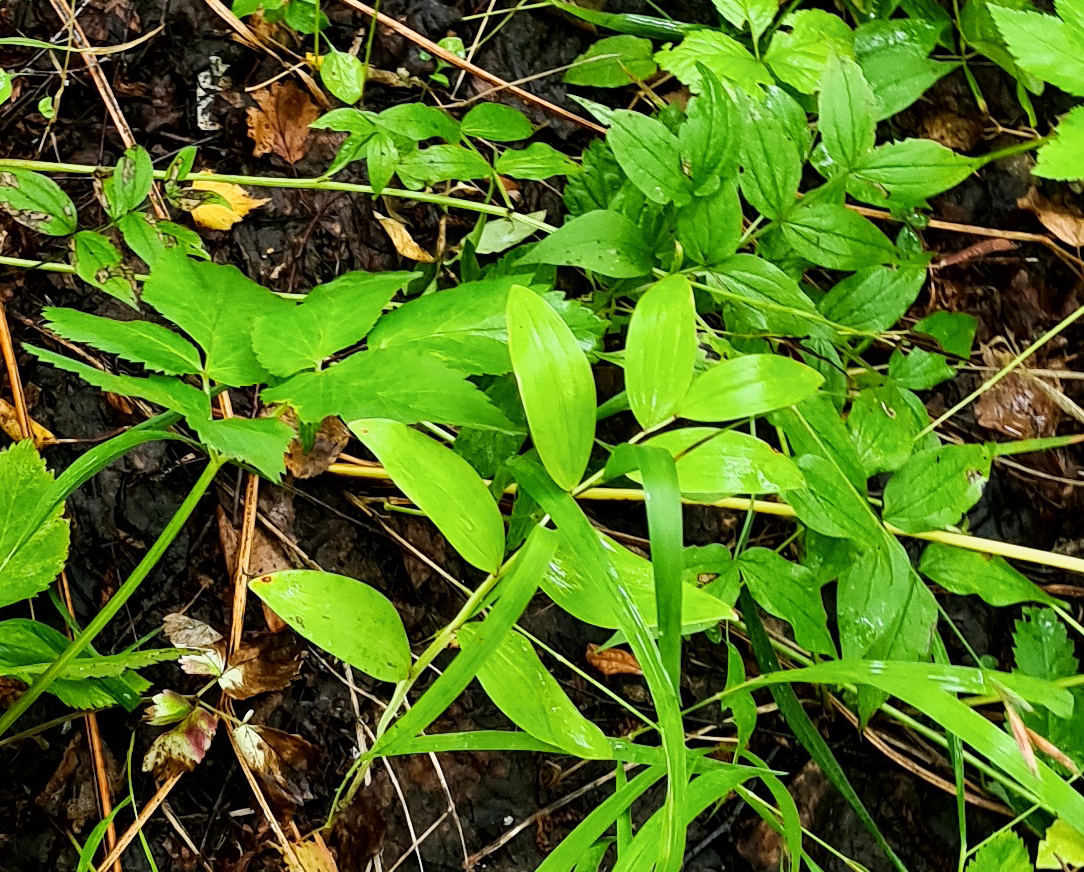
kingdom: Plantae
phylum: Tracheophyta
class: Magnoliopsida
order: Apiales
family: Apiaceae
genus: Aegopodium
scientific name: Aegopodium podagraria
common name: Ground-elder
